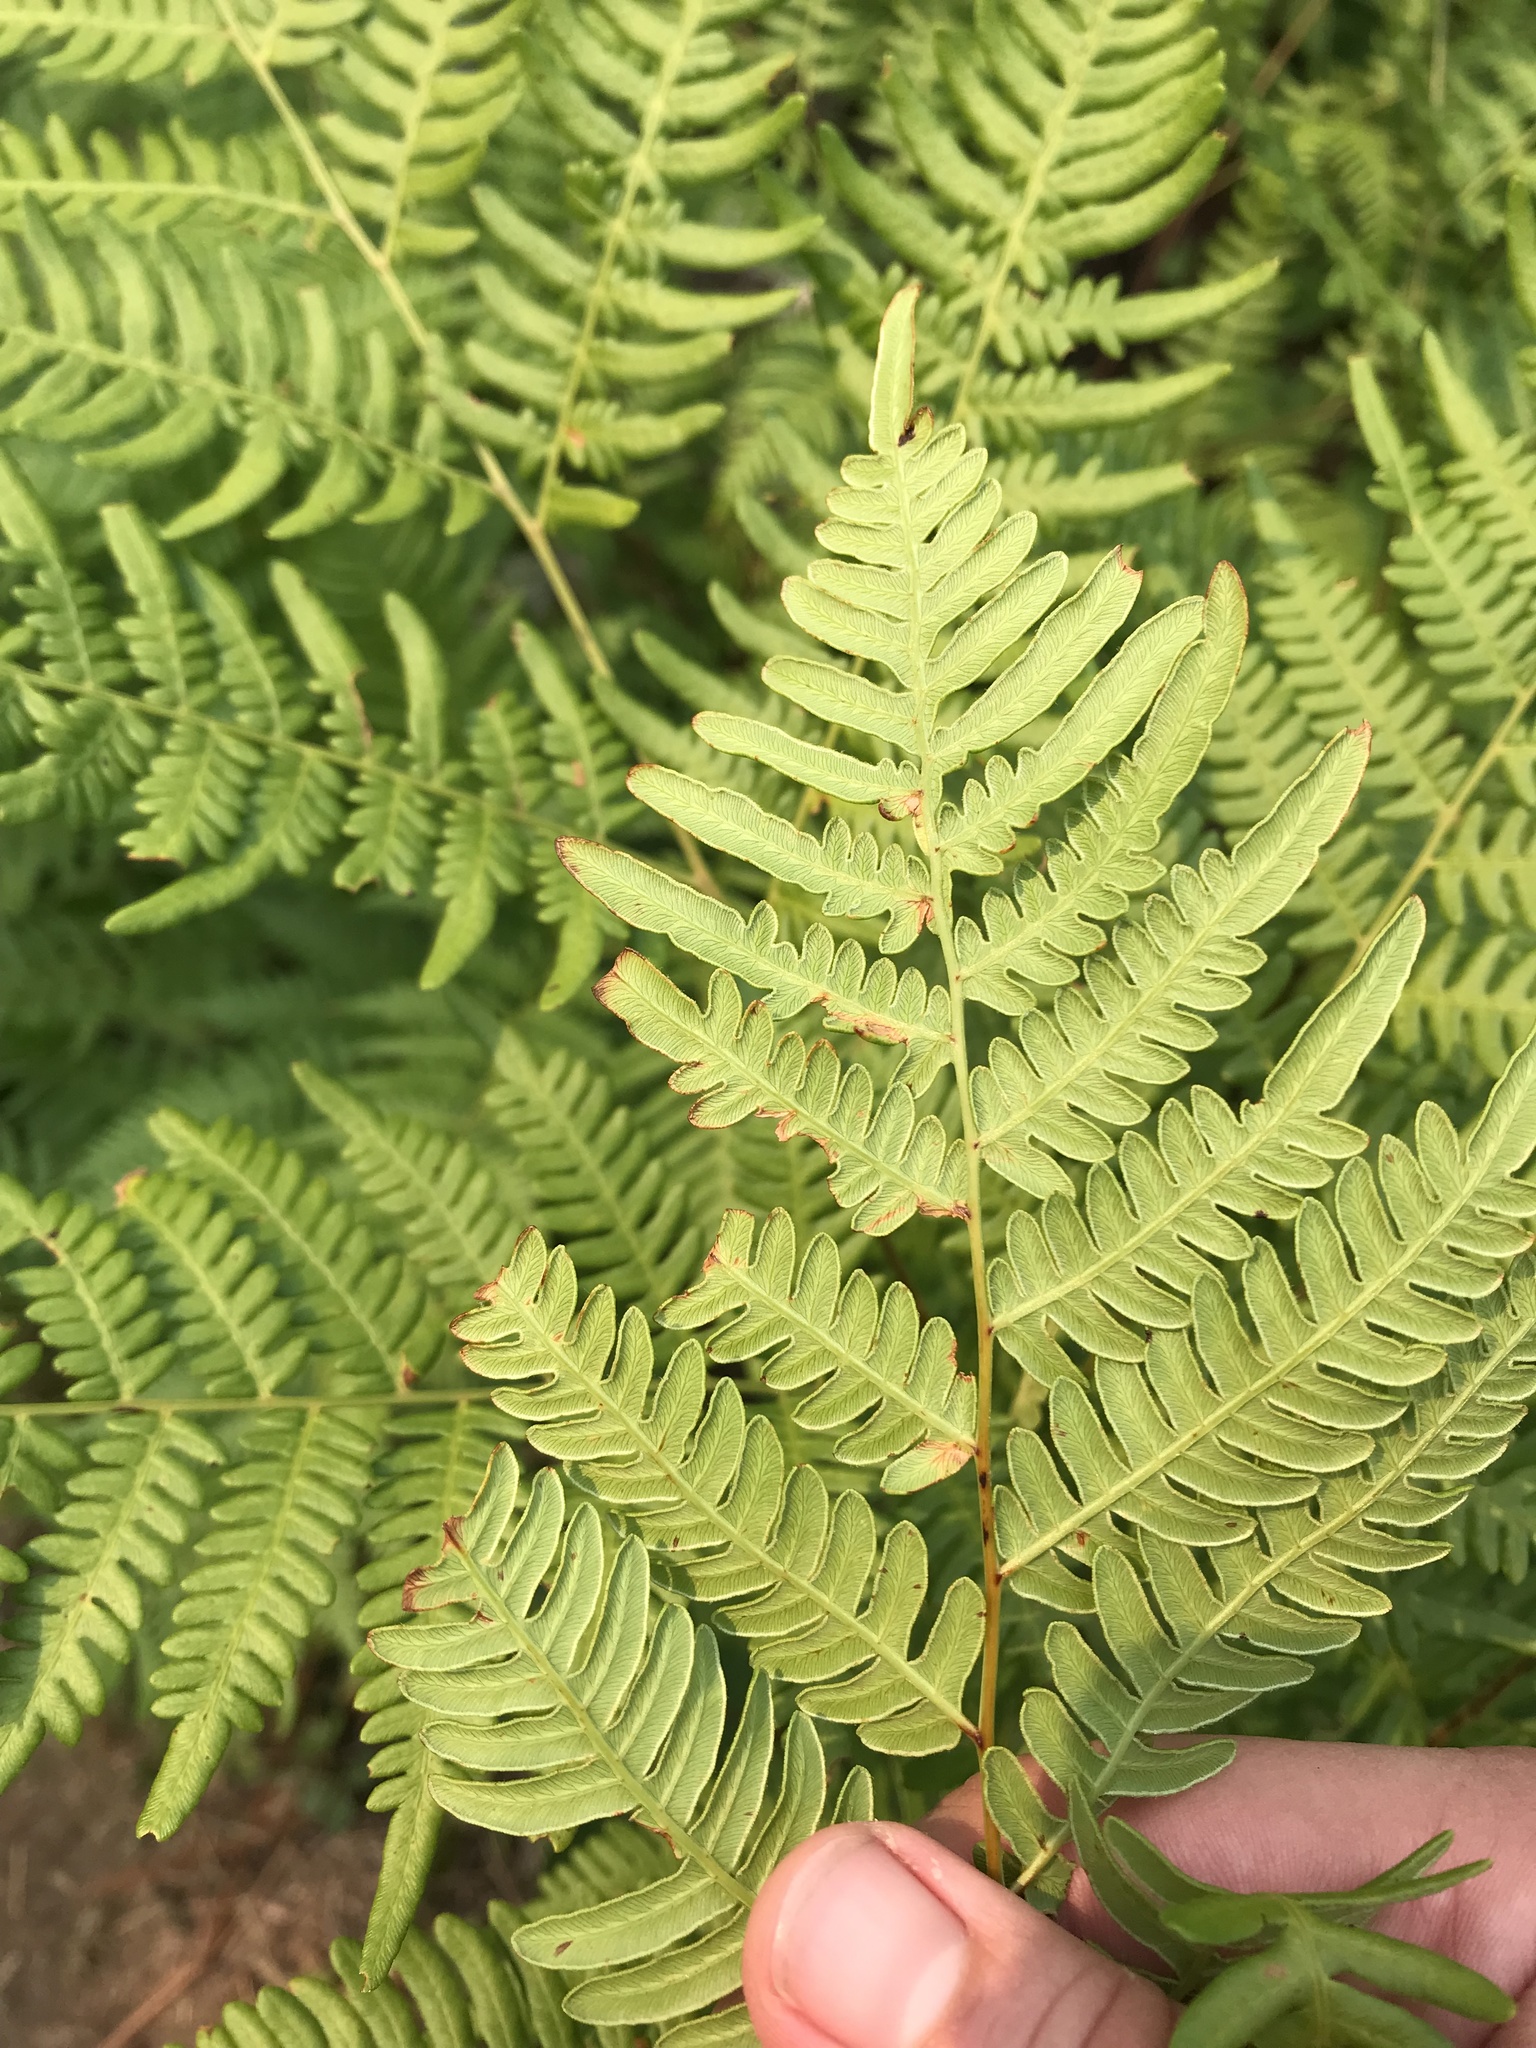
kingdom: Plantae
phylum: Tracheophyta
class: Polypodiopsida
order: Polypodiales
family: Dennstaedtiaceae
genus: Pteridium
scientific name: Pteridium aquilinum
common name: Bracken
